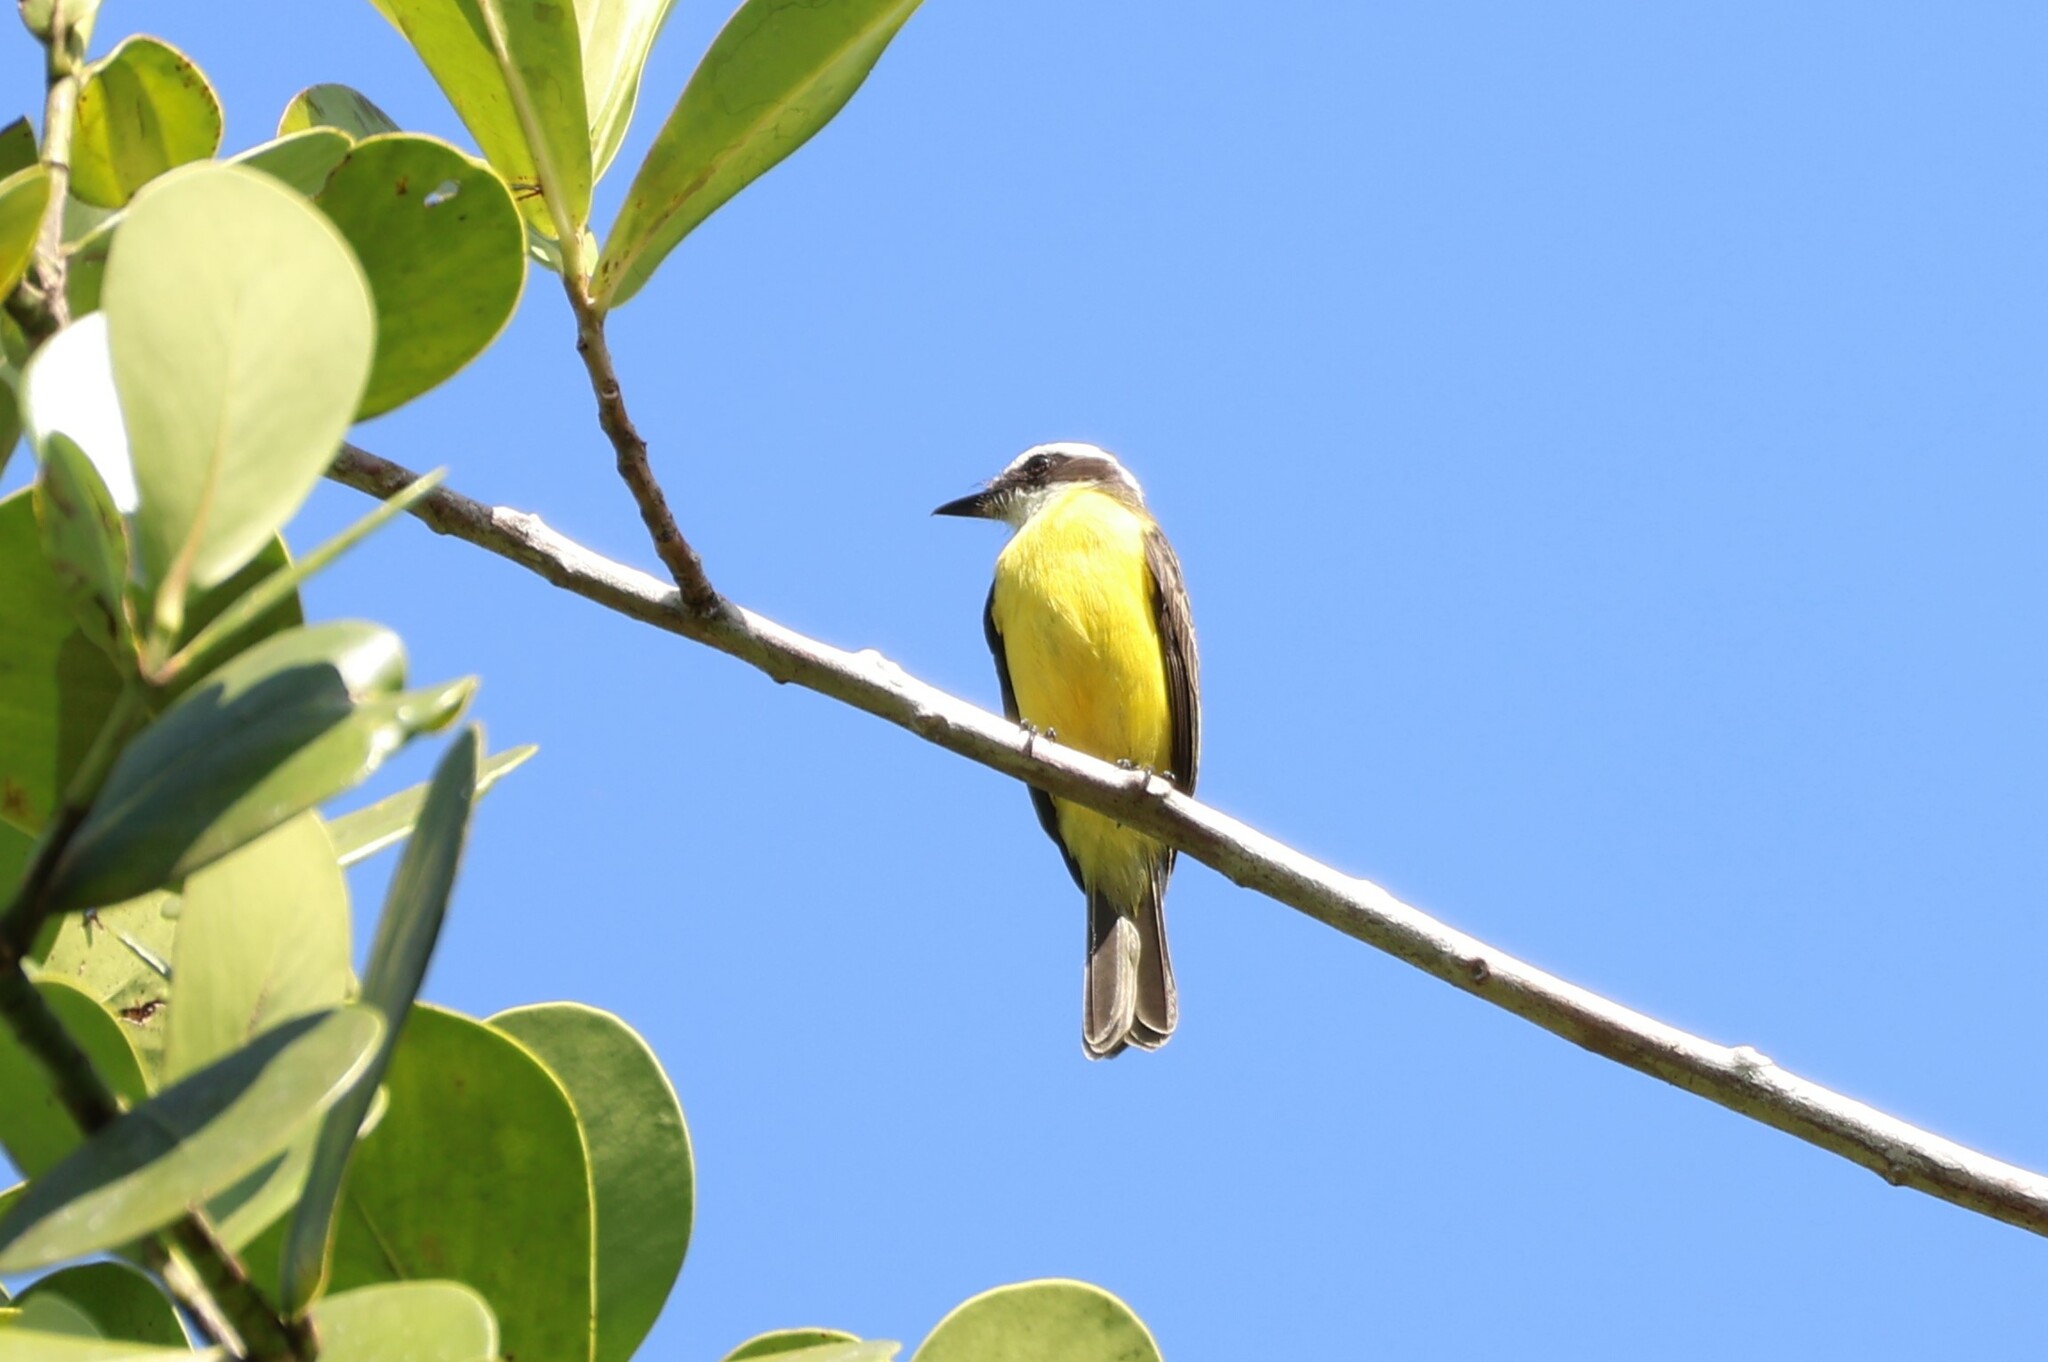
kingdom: Animalia
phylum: Chordata
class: Aves
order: Passeriformes
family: Tyrannidae
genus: Conopias
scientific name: Conopias albovittatus
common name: White-ringed flycatcher
